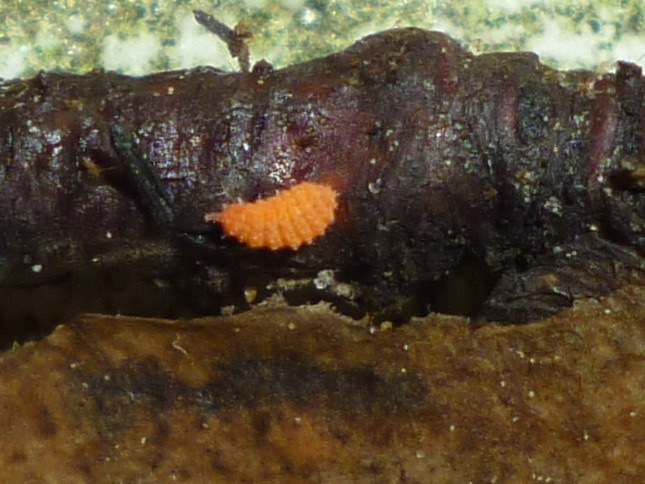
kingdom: Animalia
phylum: Arthropoda
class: Collembola
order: Poduromorpha
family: Neanuridae
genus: Vitronura
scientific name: Vitronura giselae
